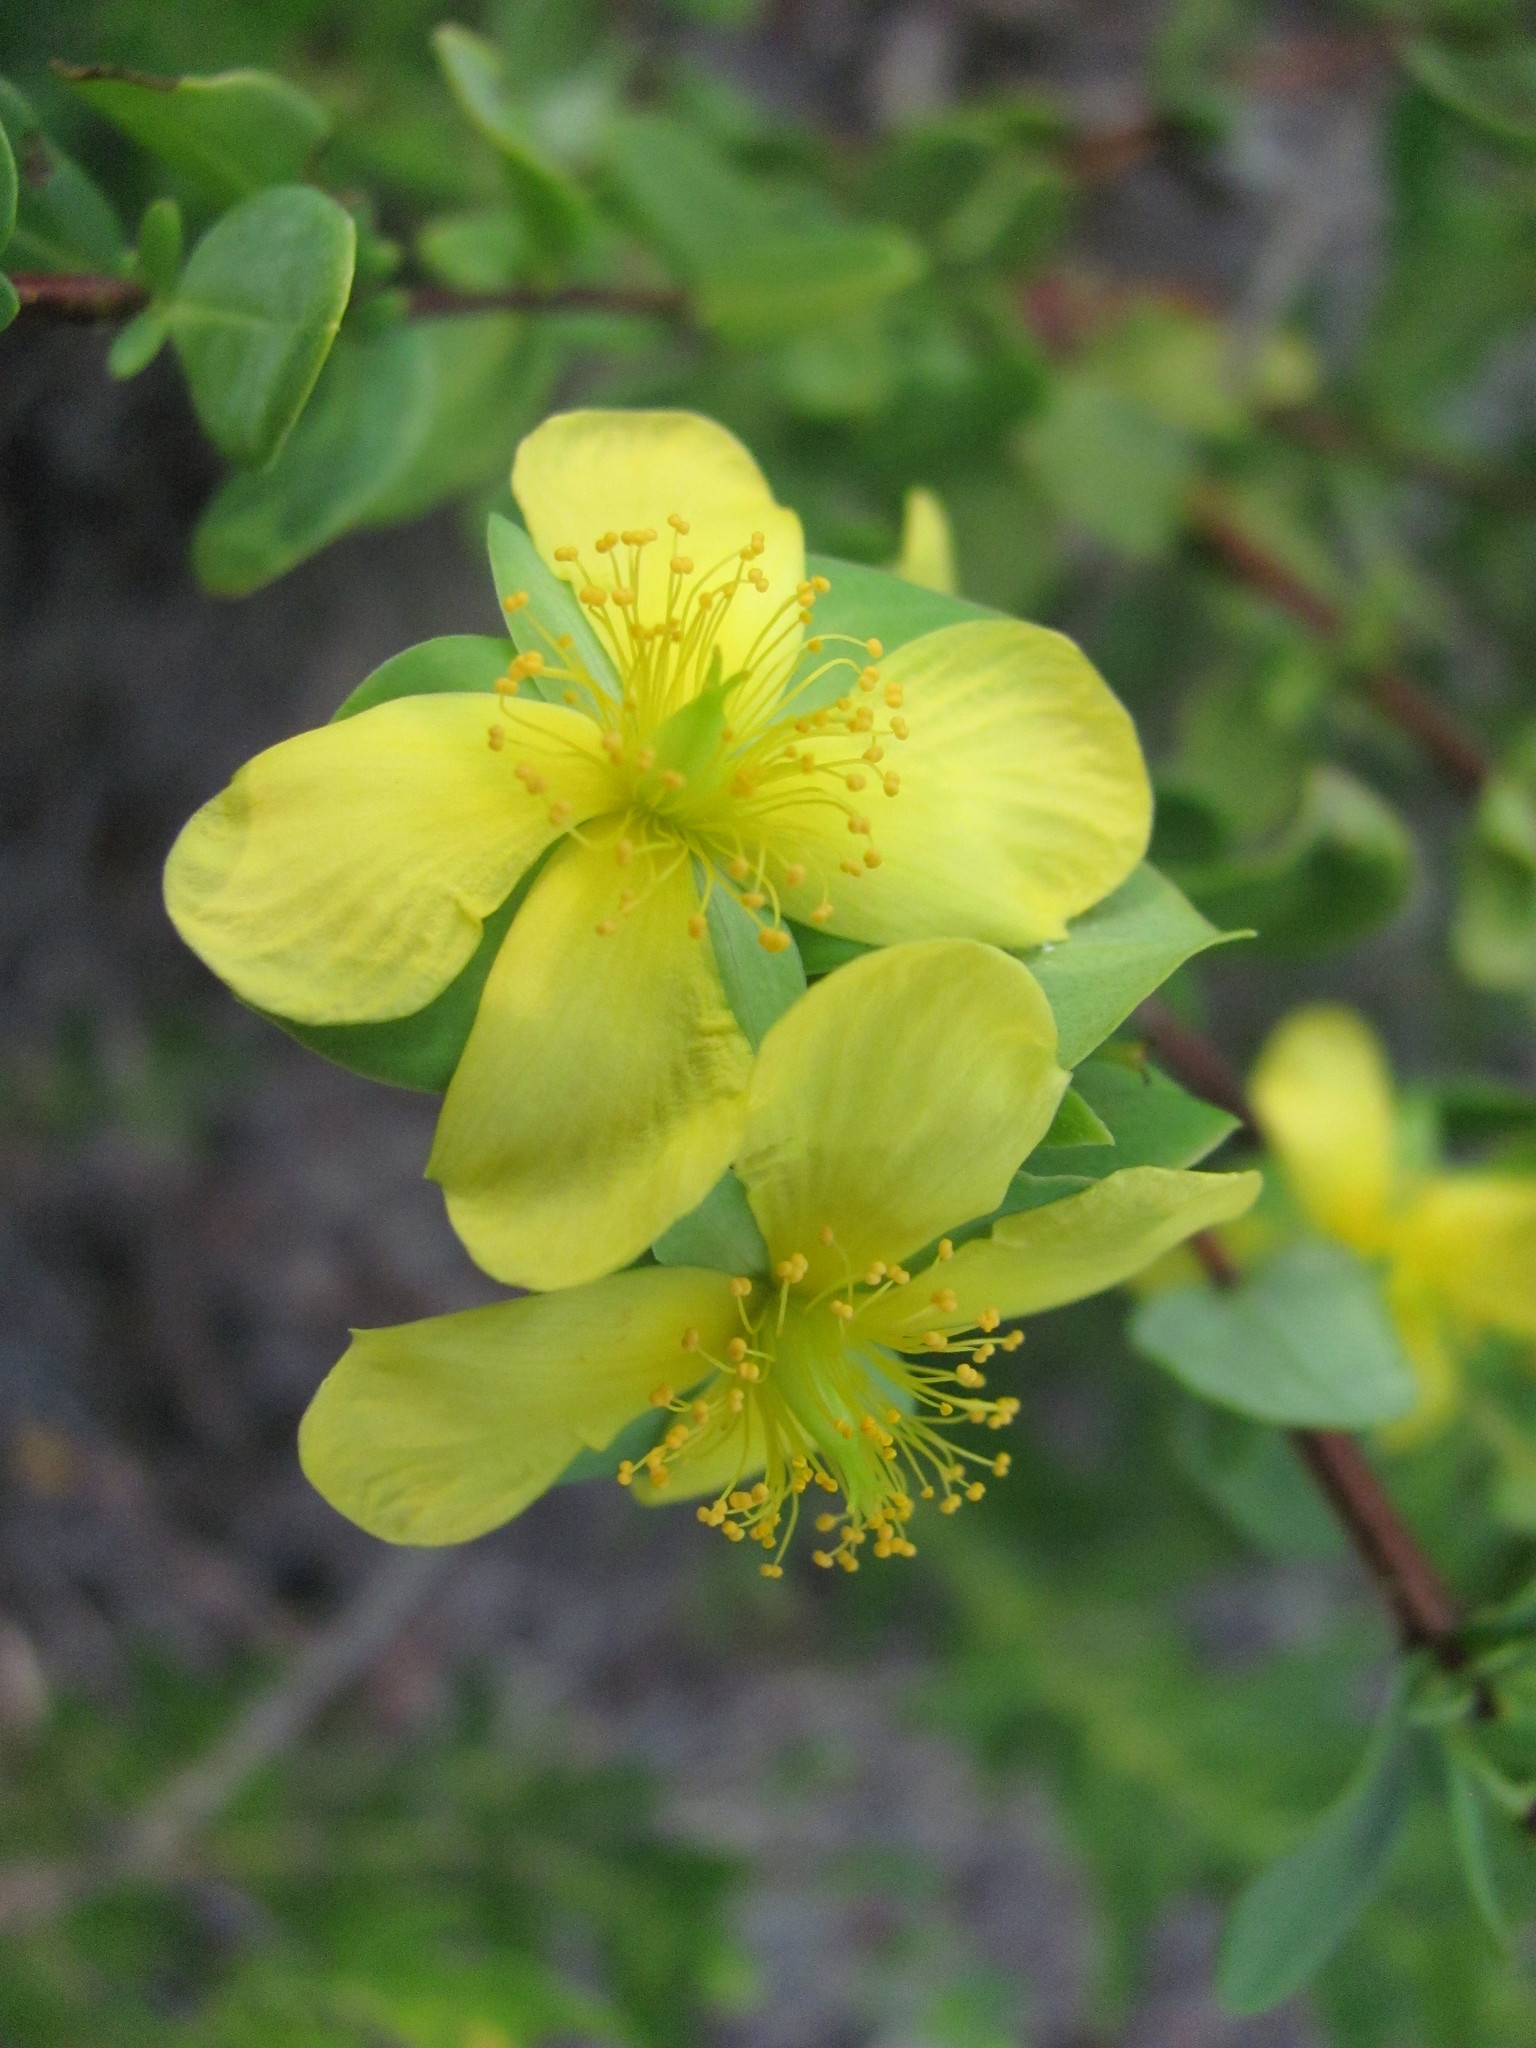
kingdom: Plantae
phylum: Tracheophyta
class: Magnoliopsida
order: Malpighiales
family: Hypericaceae
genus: Hypericum
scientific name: Hypericum crux-andreae
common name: St.-peter's-wort
